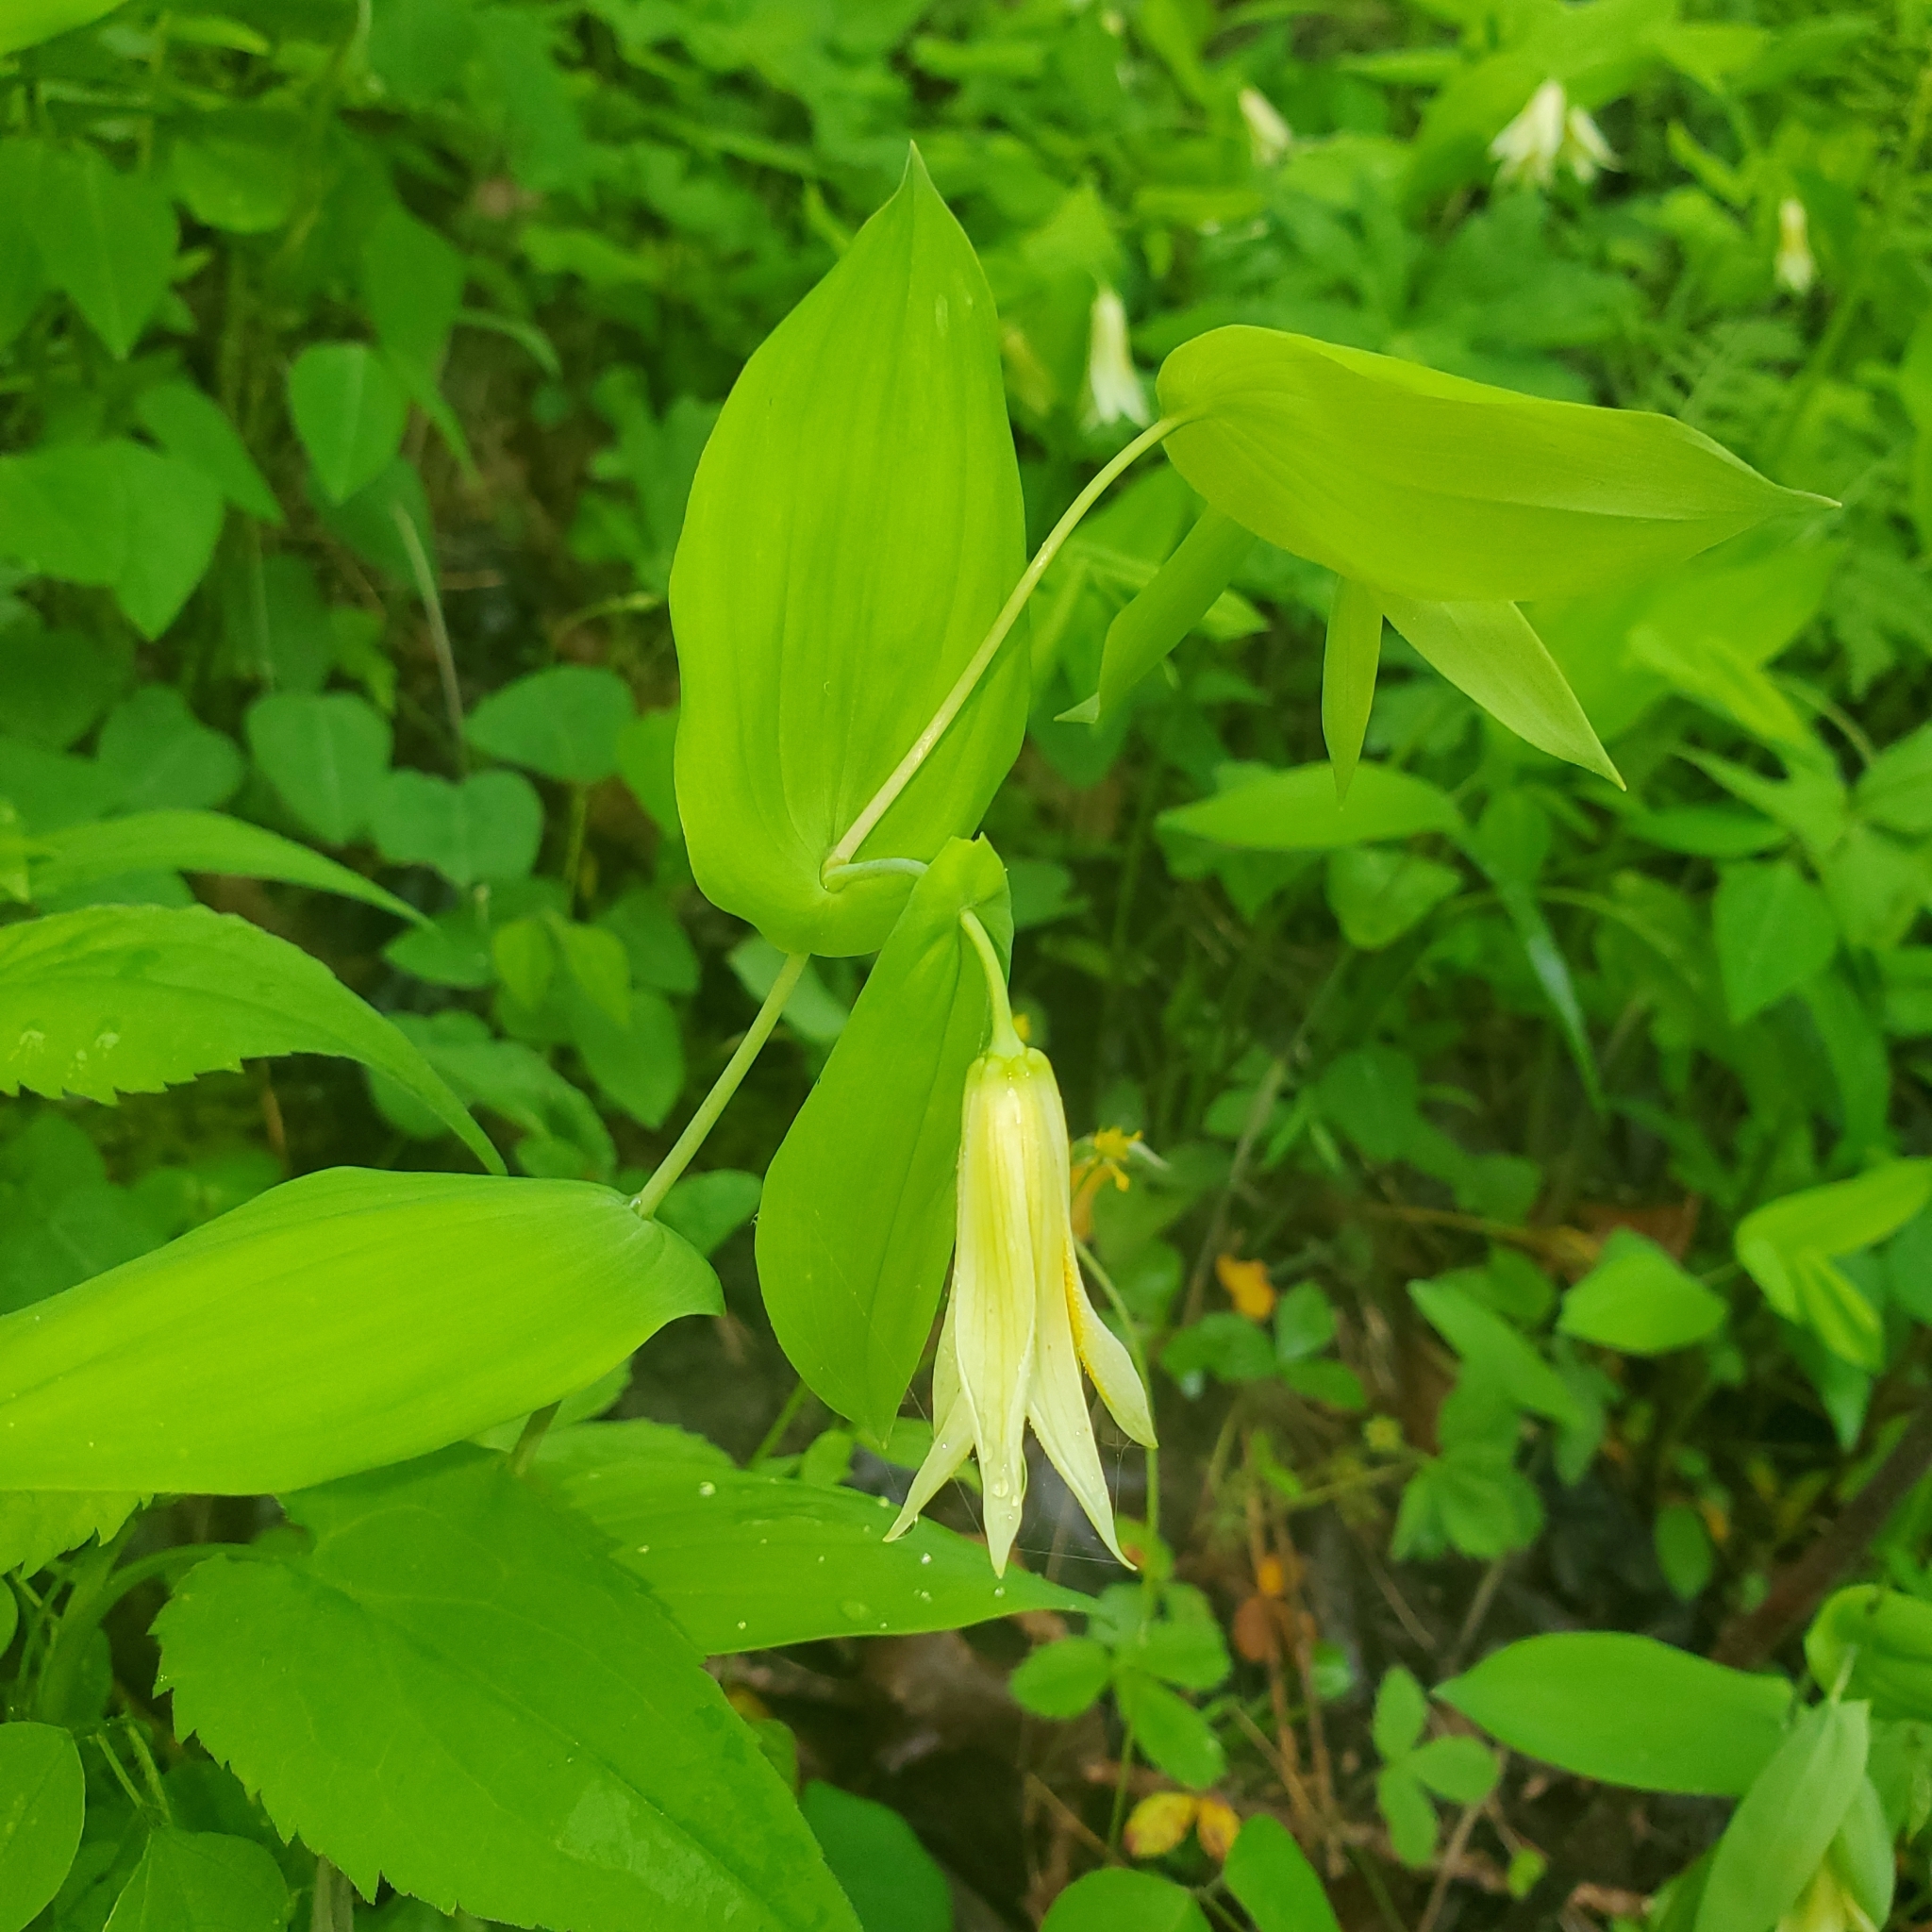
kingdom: Plantae
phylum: Tracheophyta
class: Liliopsida
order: Liliales
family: Colchicaceae
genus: Uvularia
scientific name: Uvularia perfoliata
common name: Perfoliate bellwort
